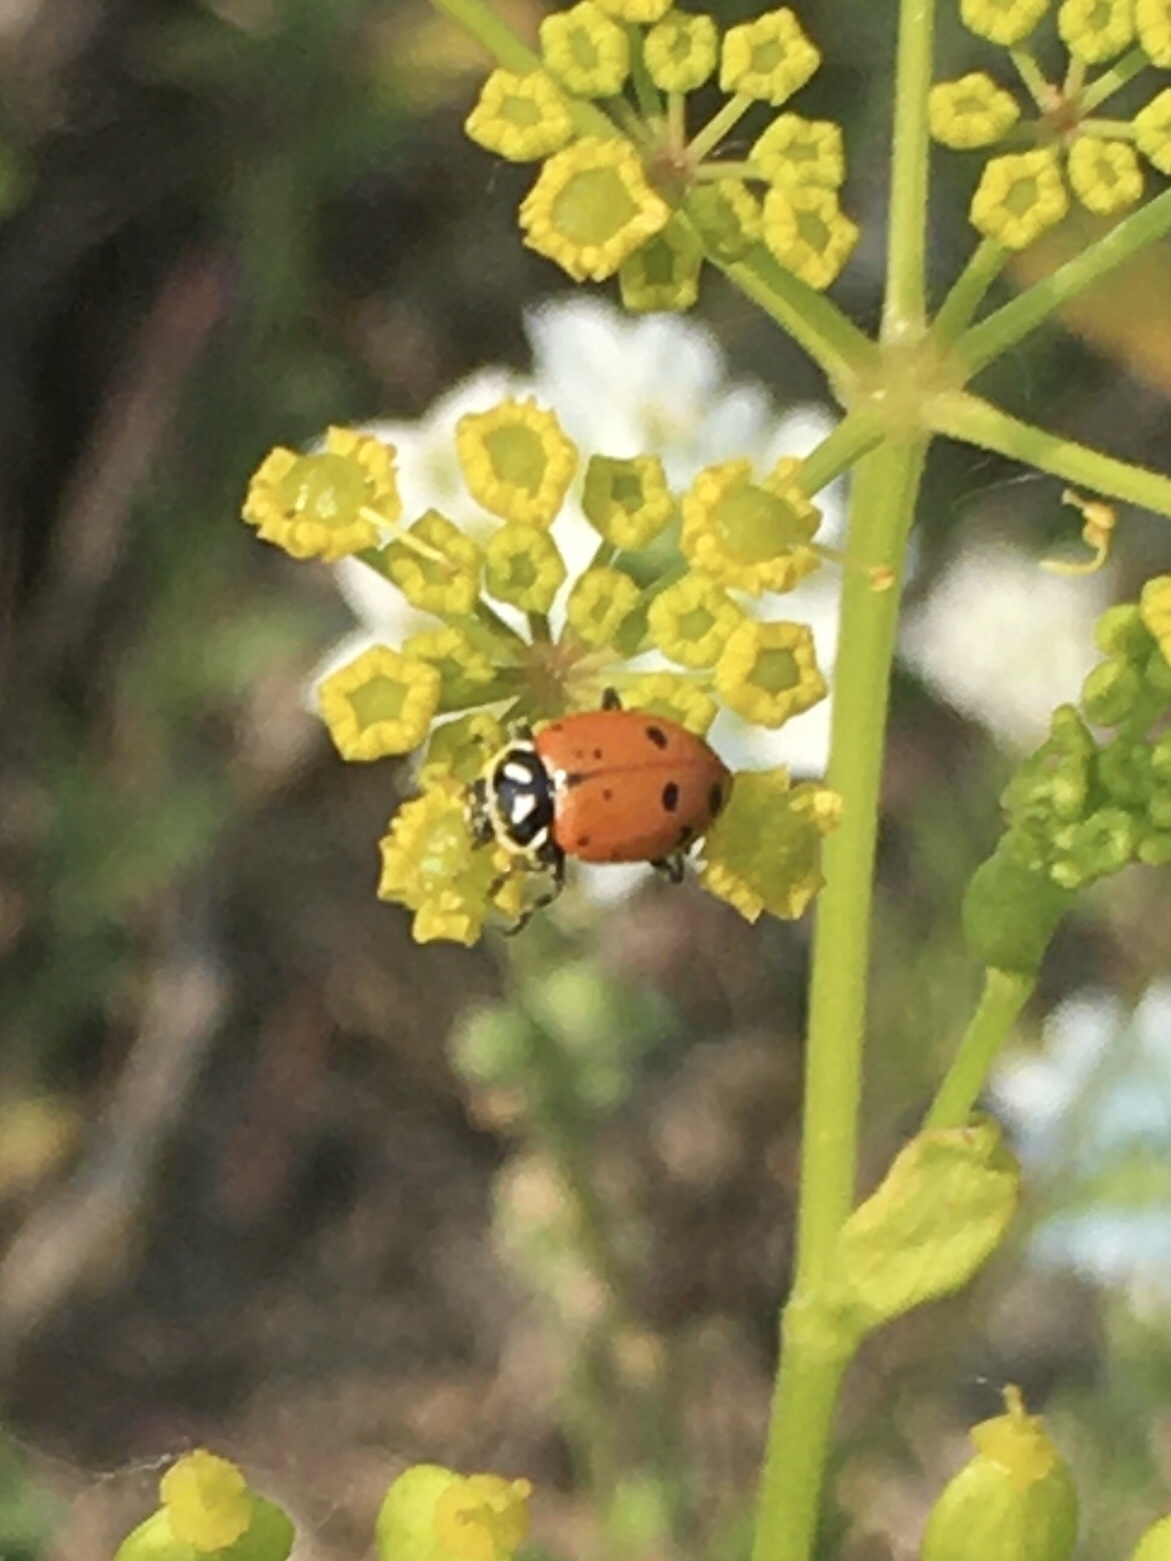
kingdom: Animalia
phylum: Arthropoda
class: Insecta
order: Coleoptera
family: Coccinellidae
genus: Hippodamia
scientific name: Hippodamia convergens
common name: Convergent lady beetle
